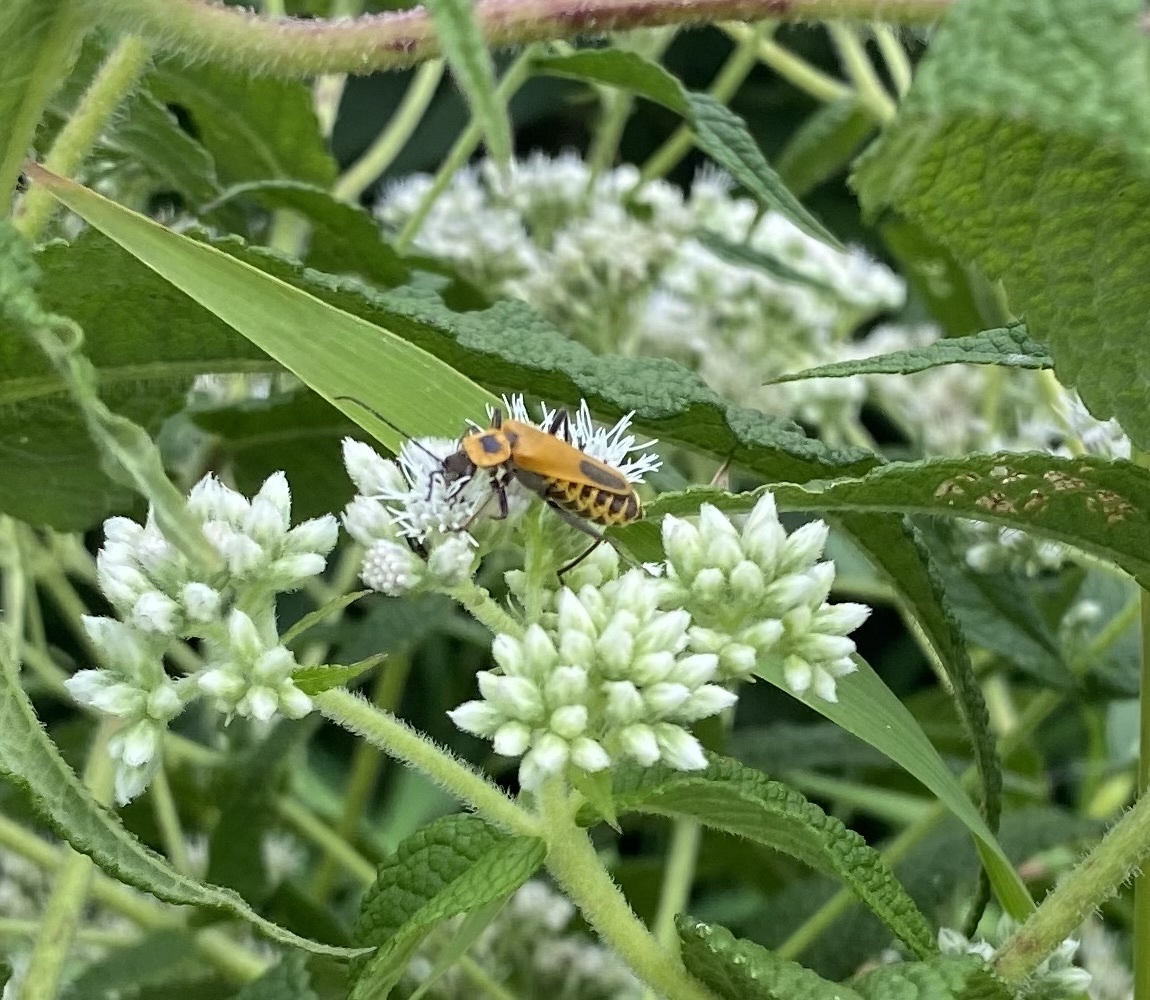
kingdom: Animalia
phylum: Arthropoda
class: Insecta
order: Coleoptera
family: Cantharidae
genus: Chauliognathus
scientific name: Chauliognathus pensylvanicus
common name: Goldenrod soldier beetle
